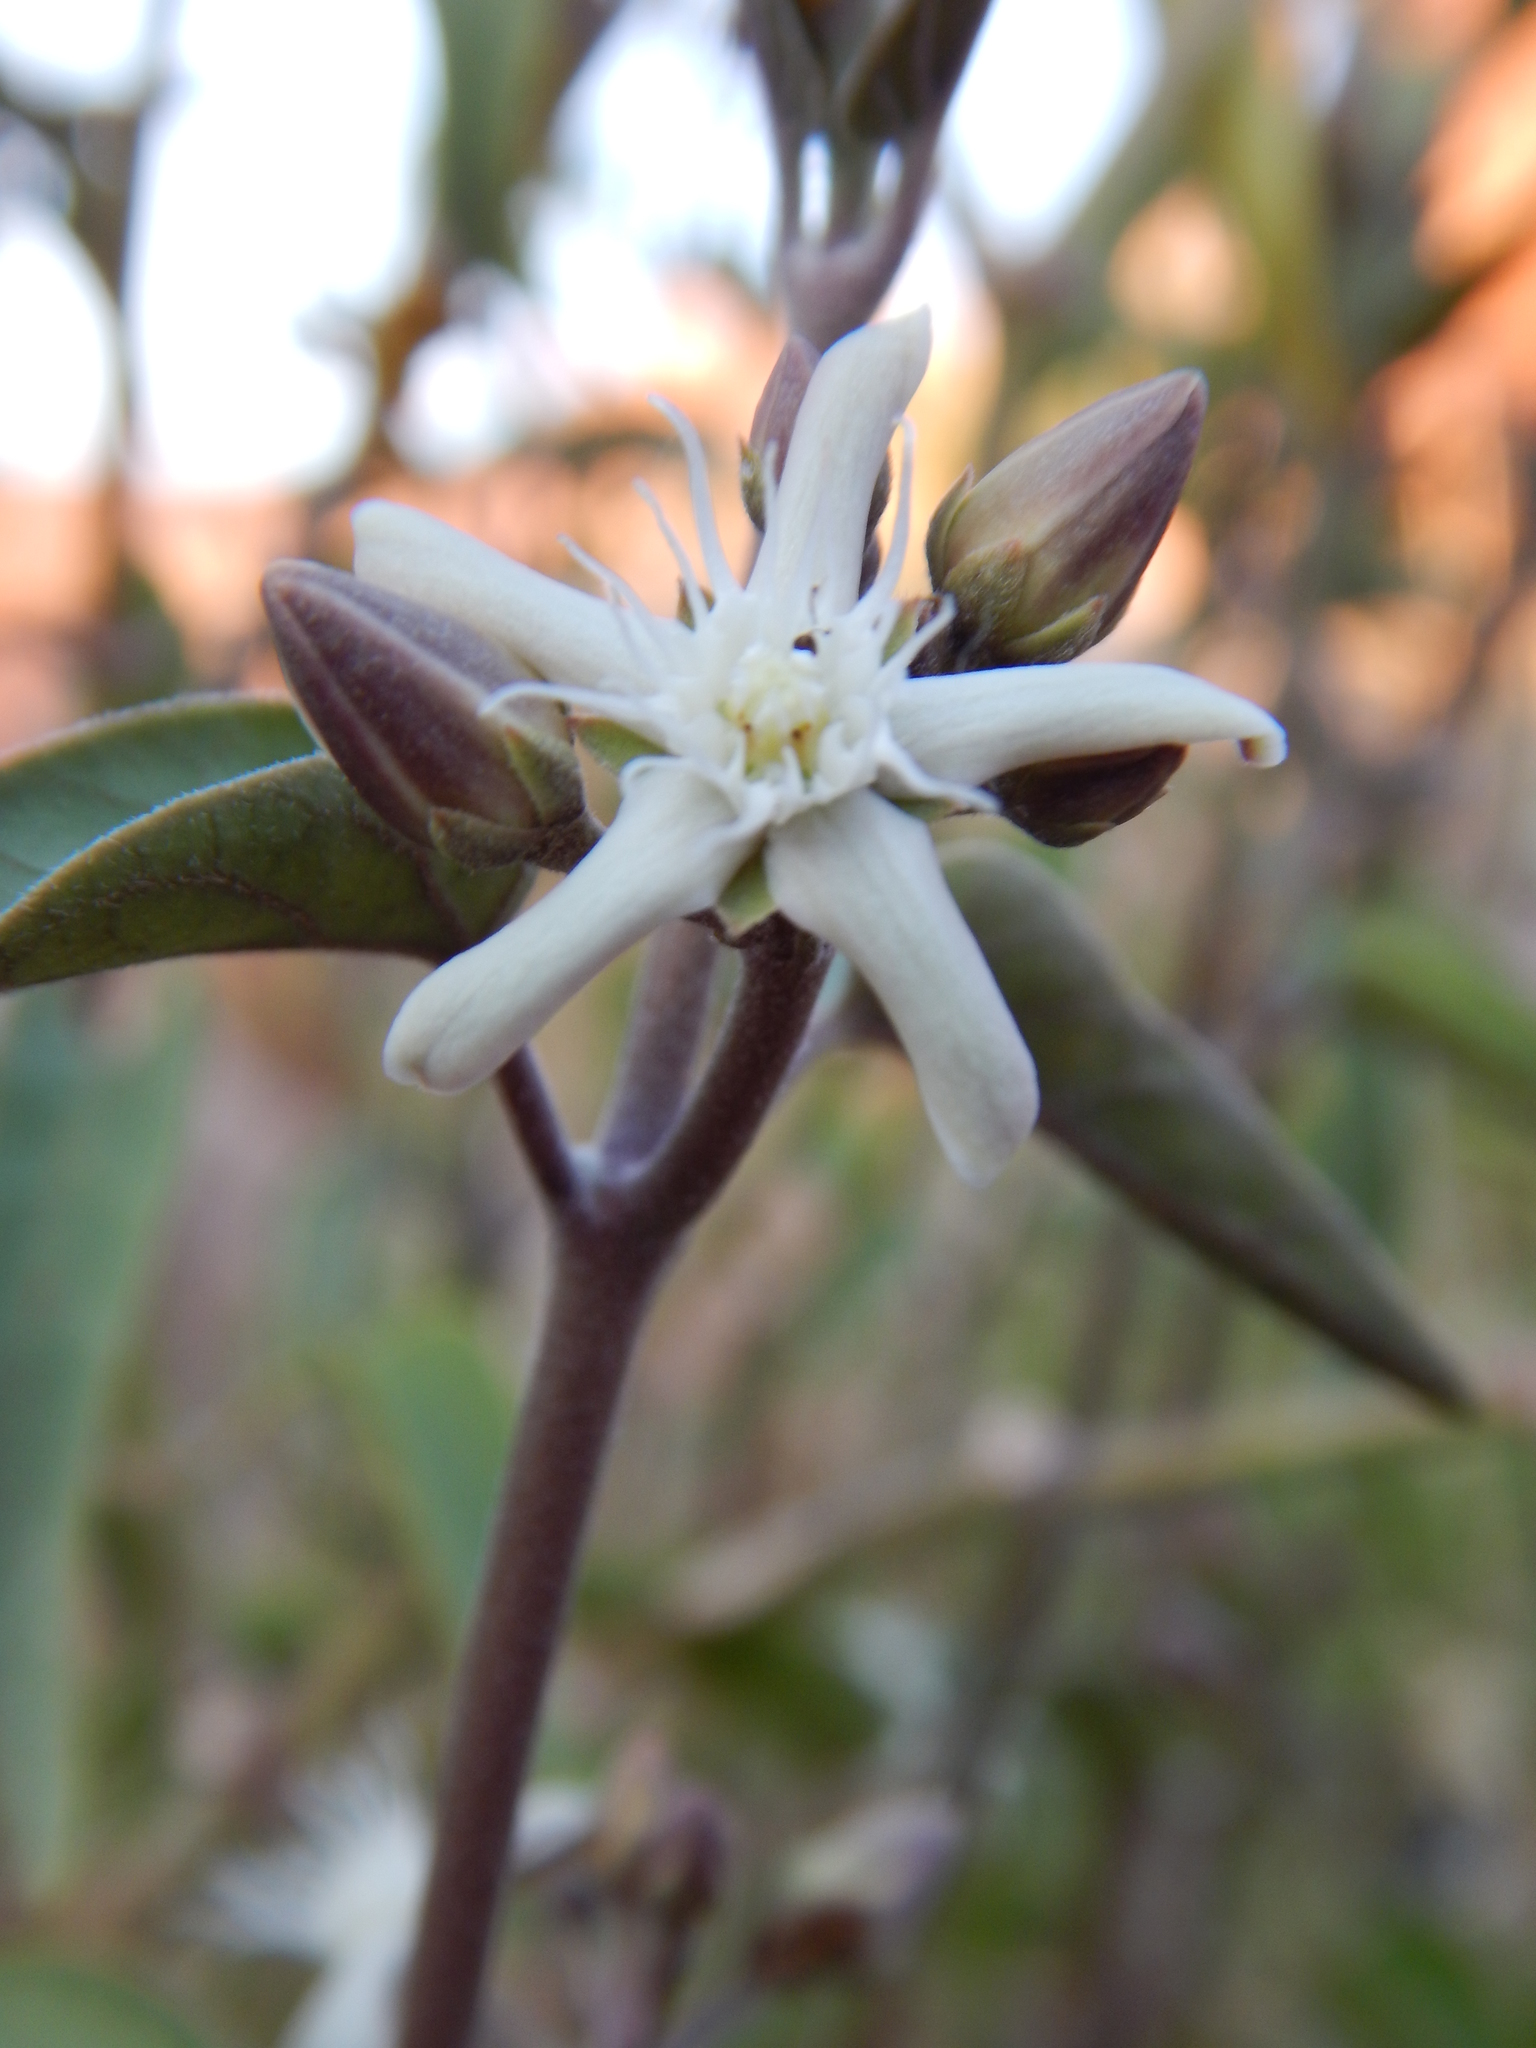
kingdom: Plantae
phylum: Tracheophyta
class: Magnoliopsida
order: Gentianales
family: Apocynaceae
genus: Vincetoxicum
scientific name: Vincetoxicum floribundum
